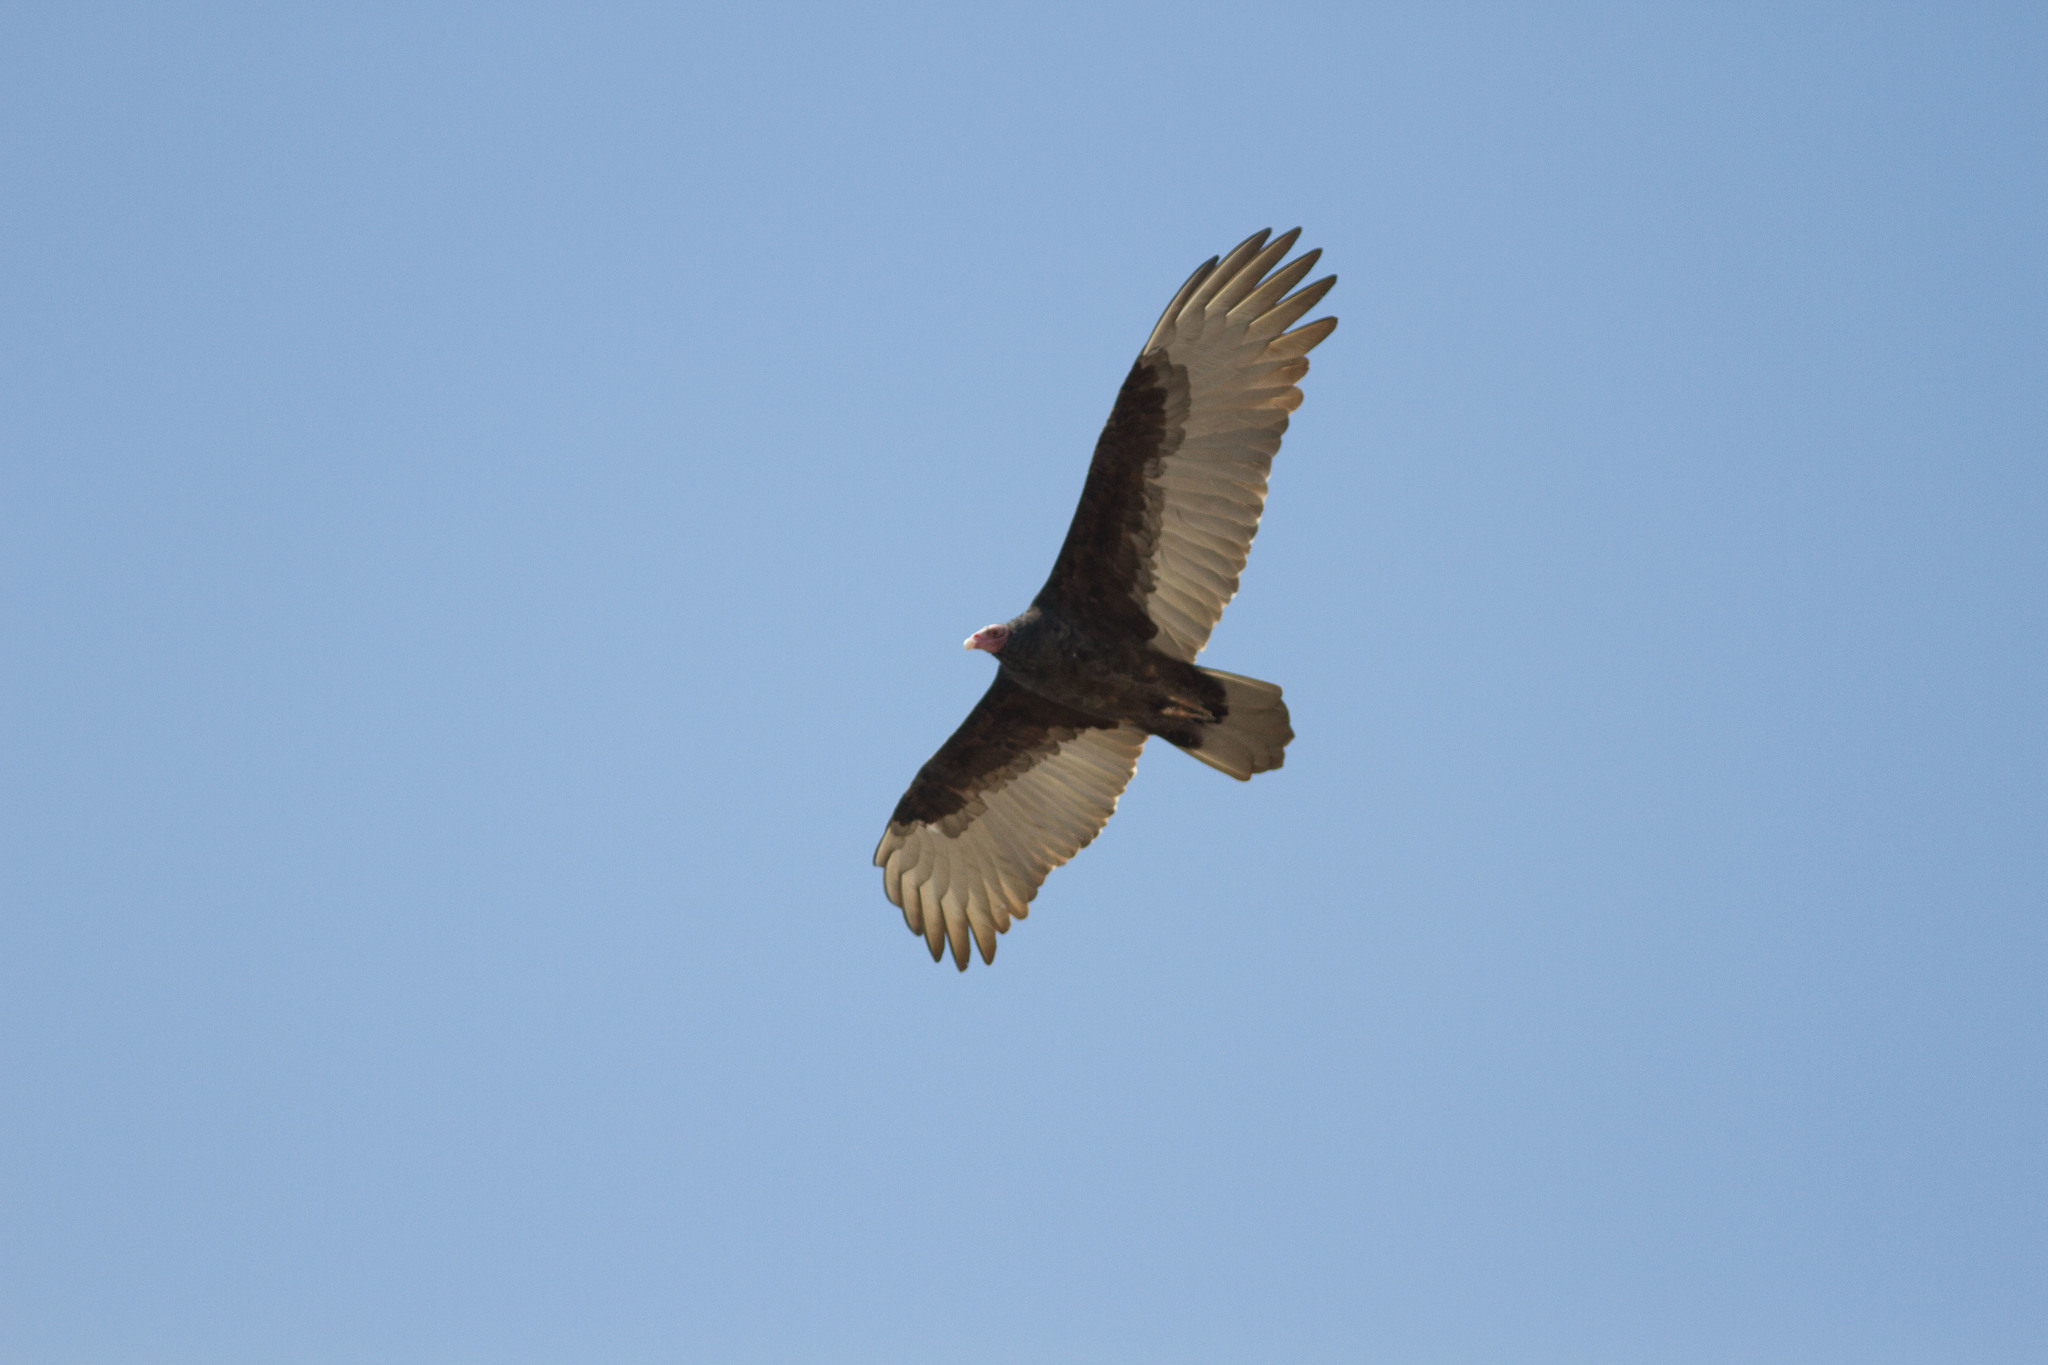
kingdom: Animalia
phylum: Chordata
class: Aves
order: Accipitriformes
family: Cathartidae
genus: Cathartes
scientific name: Cathartes aura
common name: Turkey vulture
